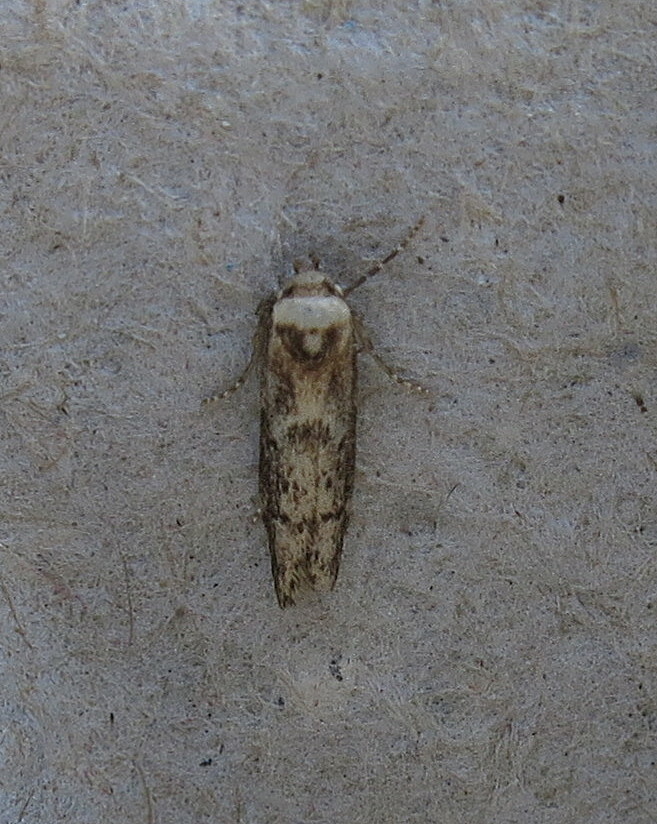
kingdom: Animalia
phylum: Arthropoda
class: Insecta
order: Lepidoptera
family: Blastobasidae
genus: Blastobasis
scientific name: Blastobasis adustella
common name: Dingy dowd
